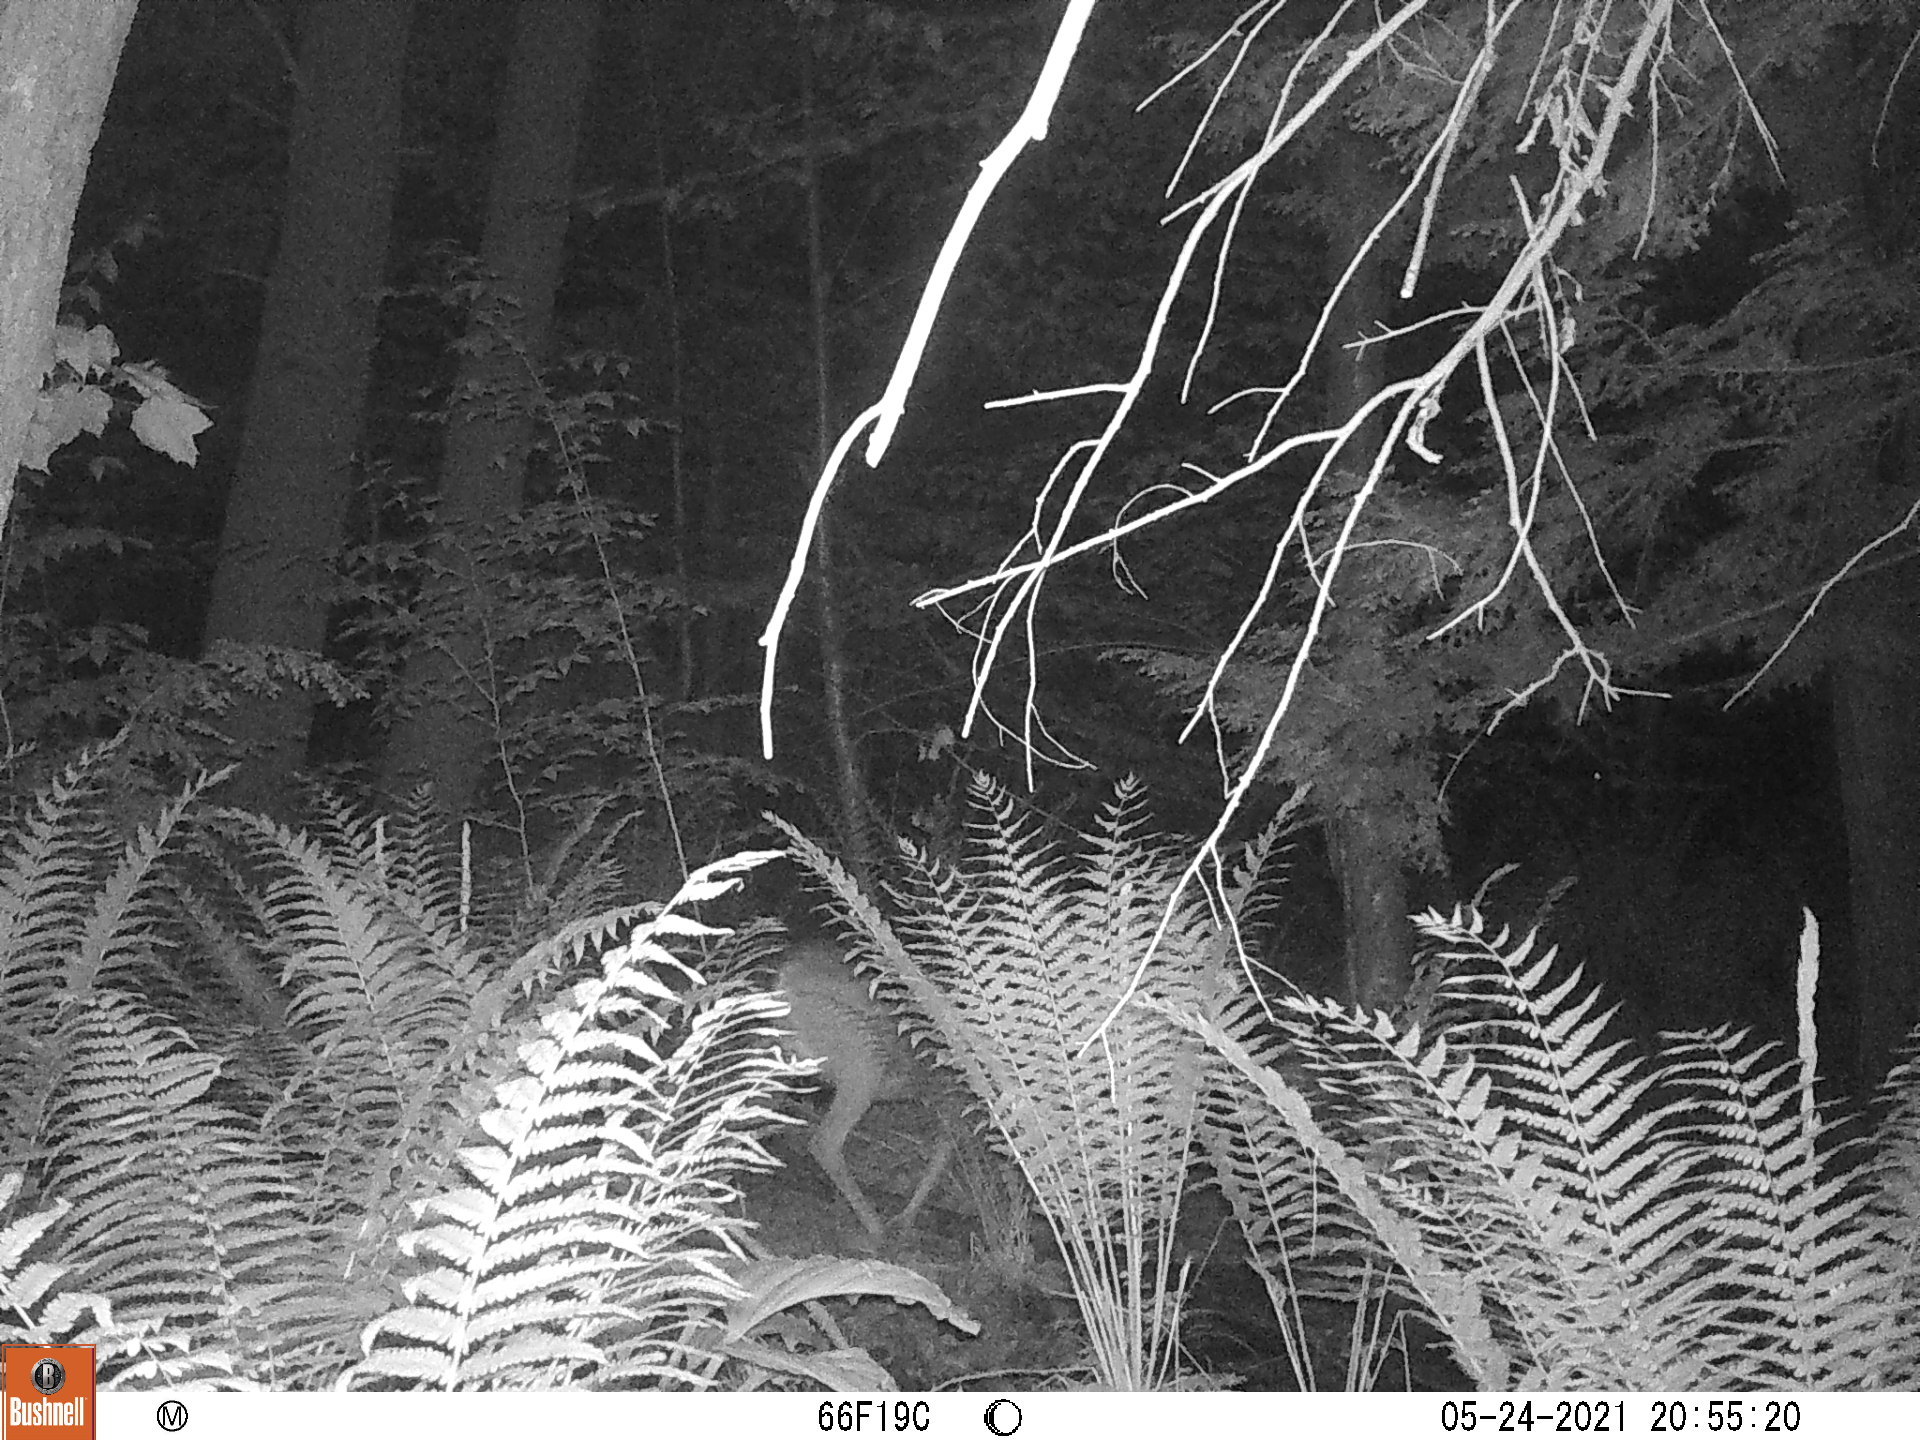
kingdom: Animalia
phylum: Chordata
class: Mammalia
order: Artiodactyla
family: Cervidae
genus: Odocoileus
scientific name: Odocoileus virginianus
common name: White-tailed deer
